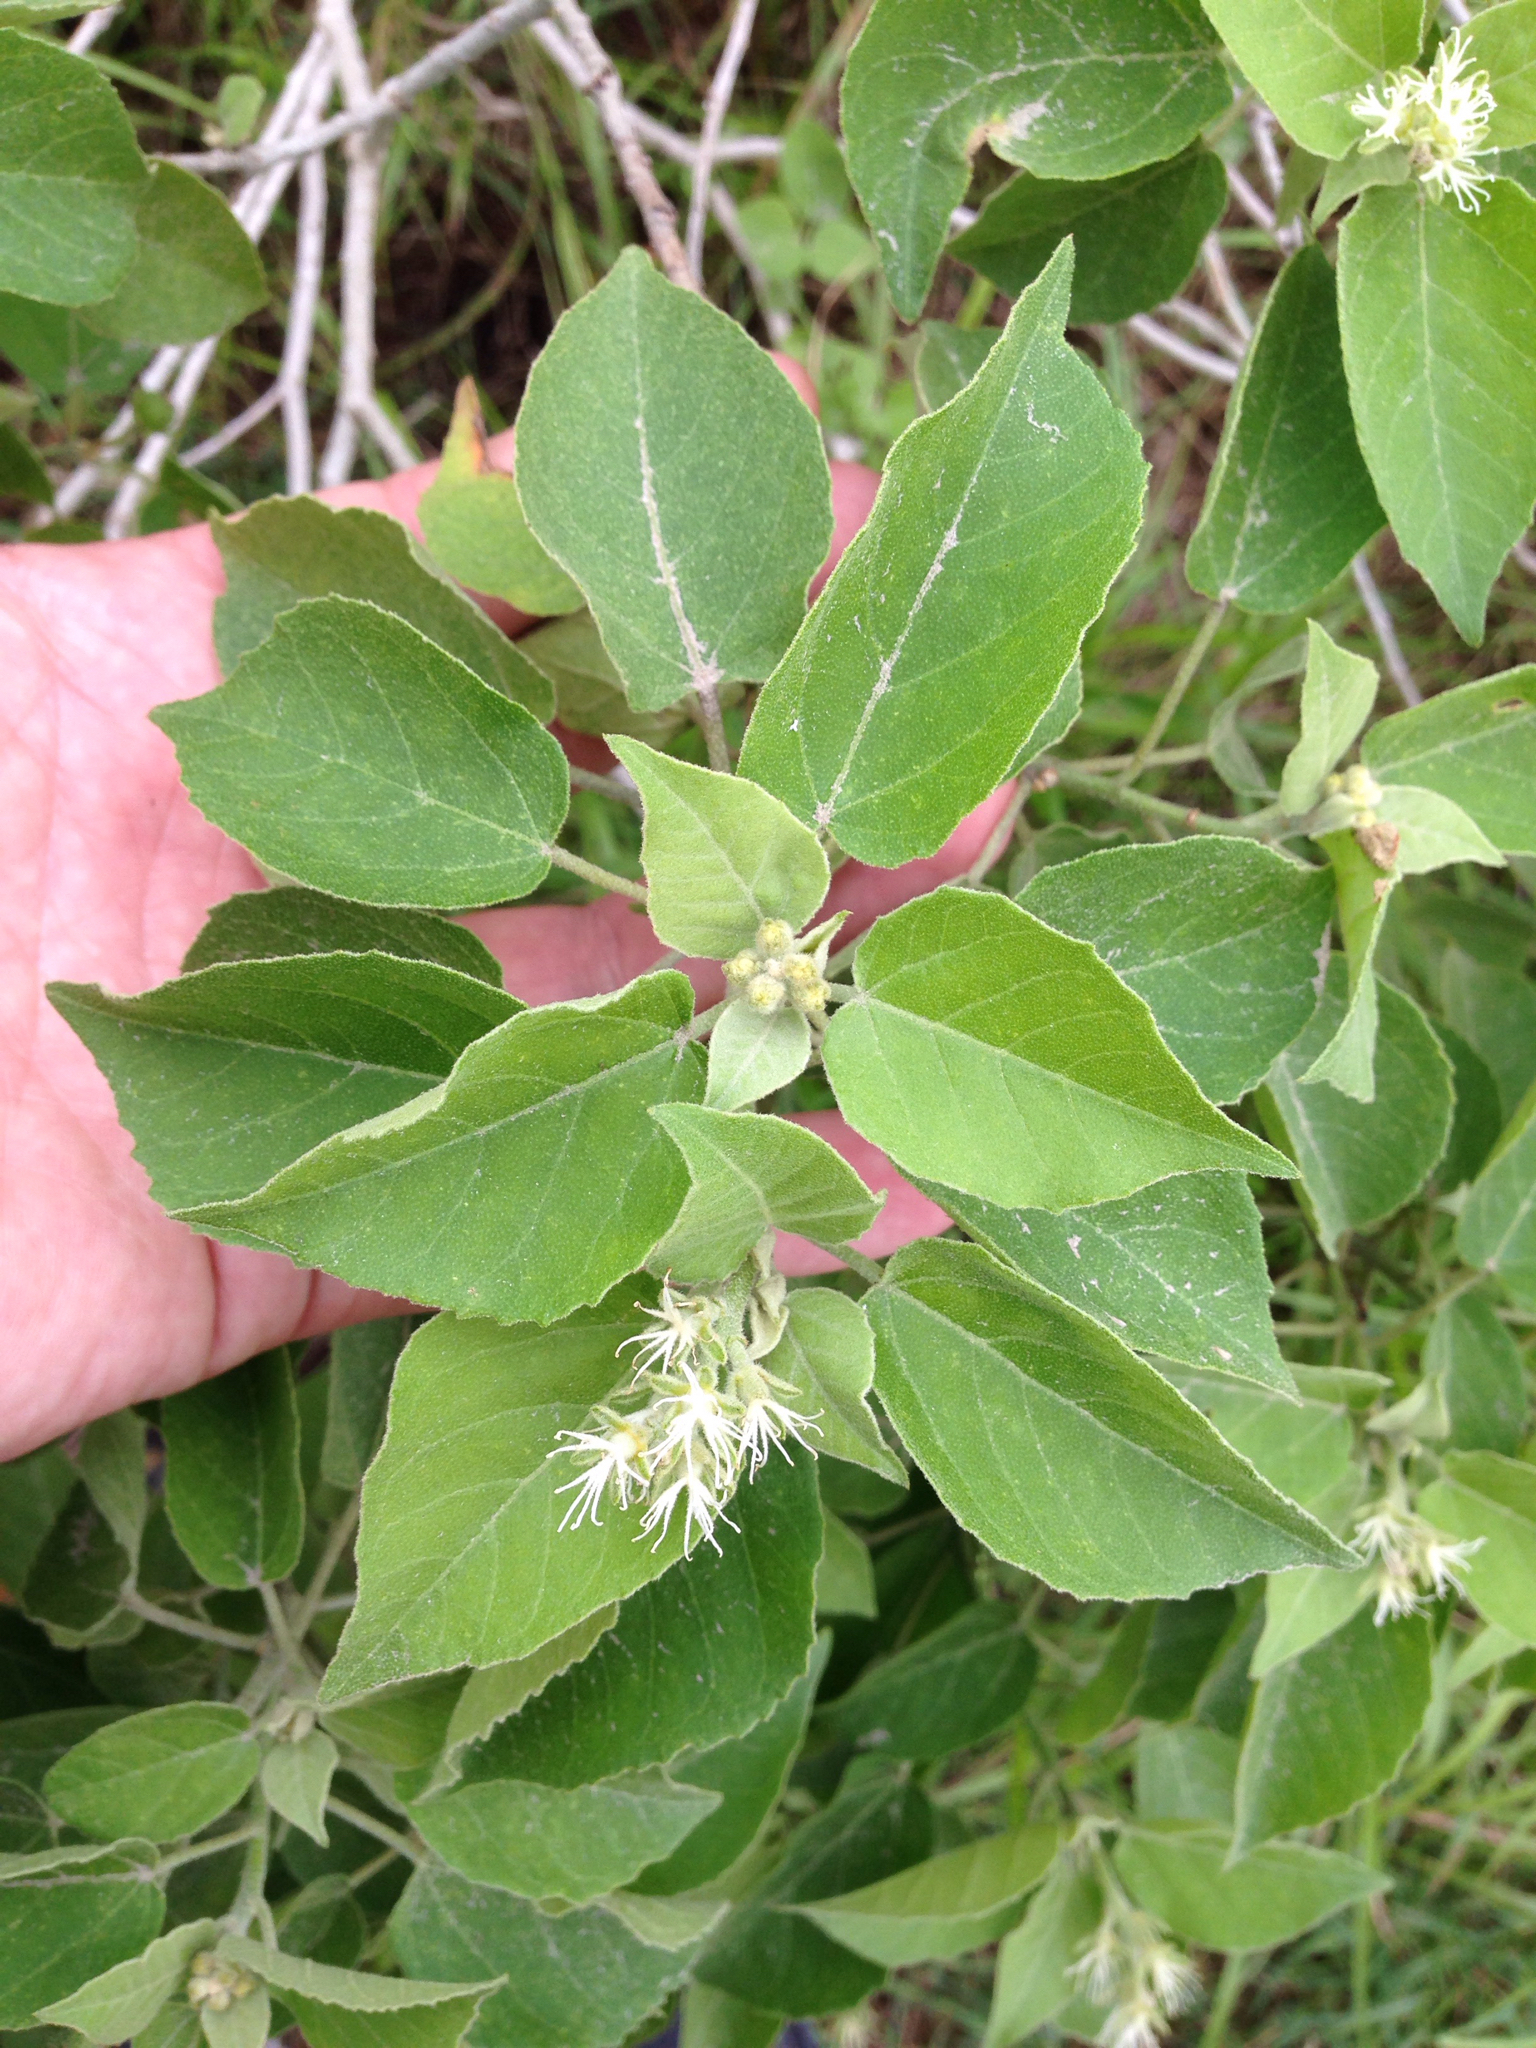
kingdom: Plantae
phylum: Tracheophyta
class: Magnoliopsida
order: Malpighiales
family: Euphorbiaceae
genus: Croton
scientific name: Croton humilis
